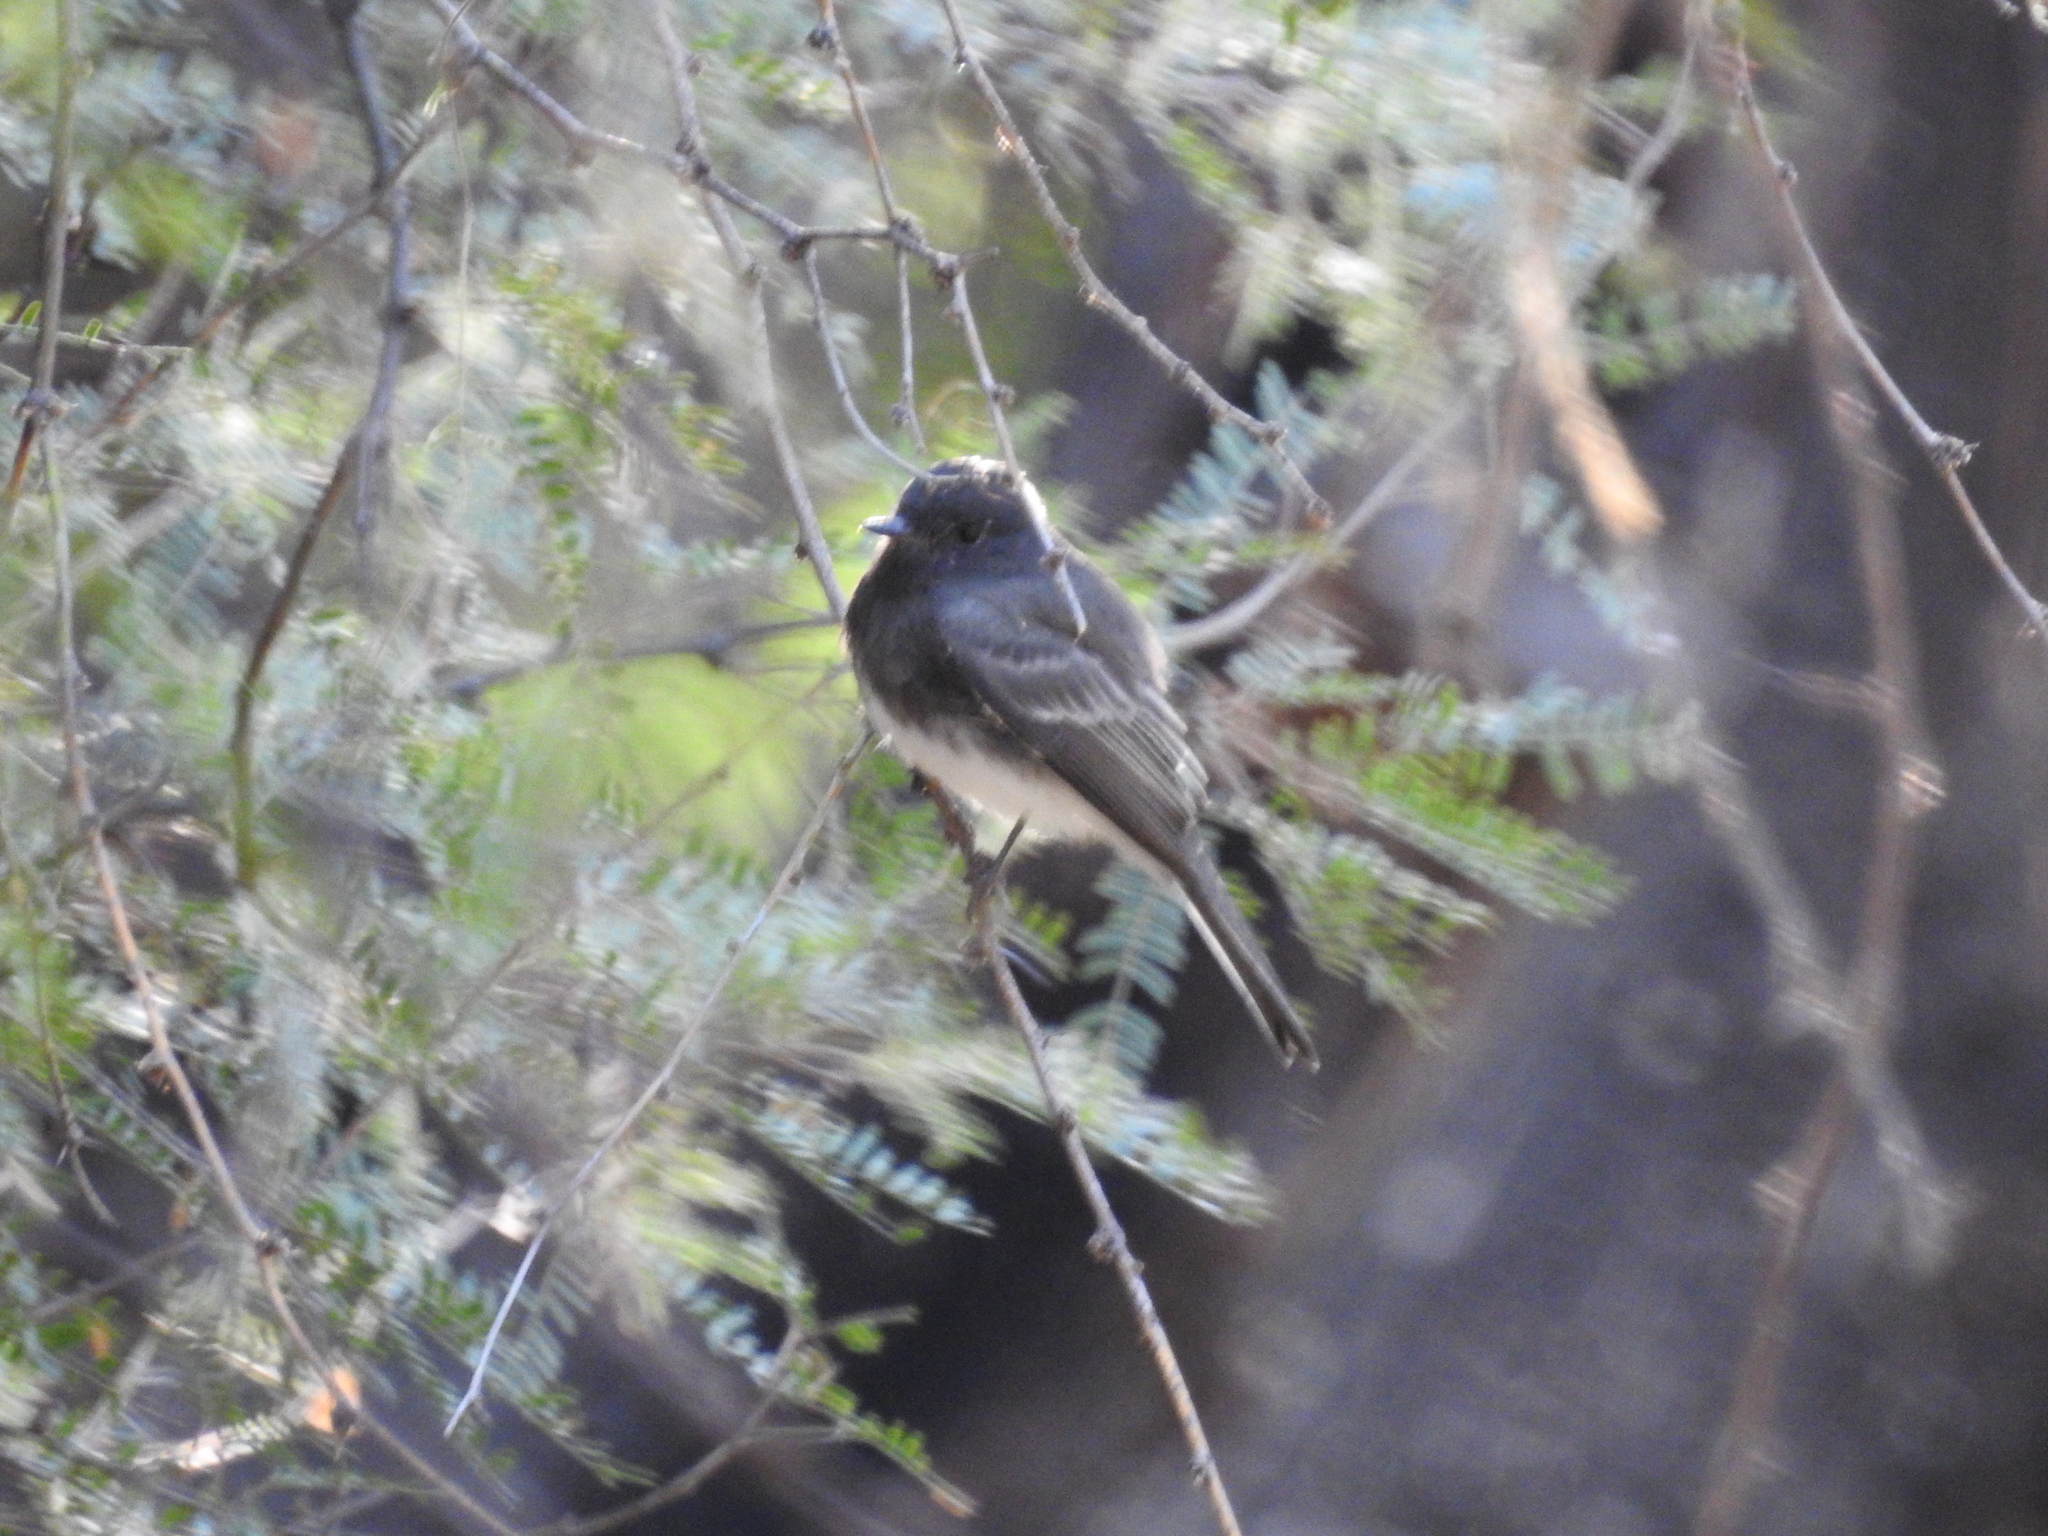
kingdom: Animalia
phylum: Chordata
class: Aves
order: Passeriformes
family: Tyrannidae
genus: Sayornis
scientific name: Sayornis nigricans
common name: Black phoebe
